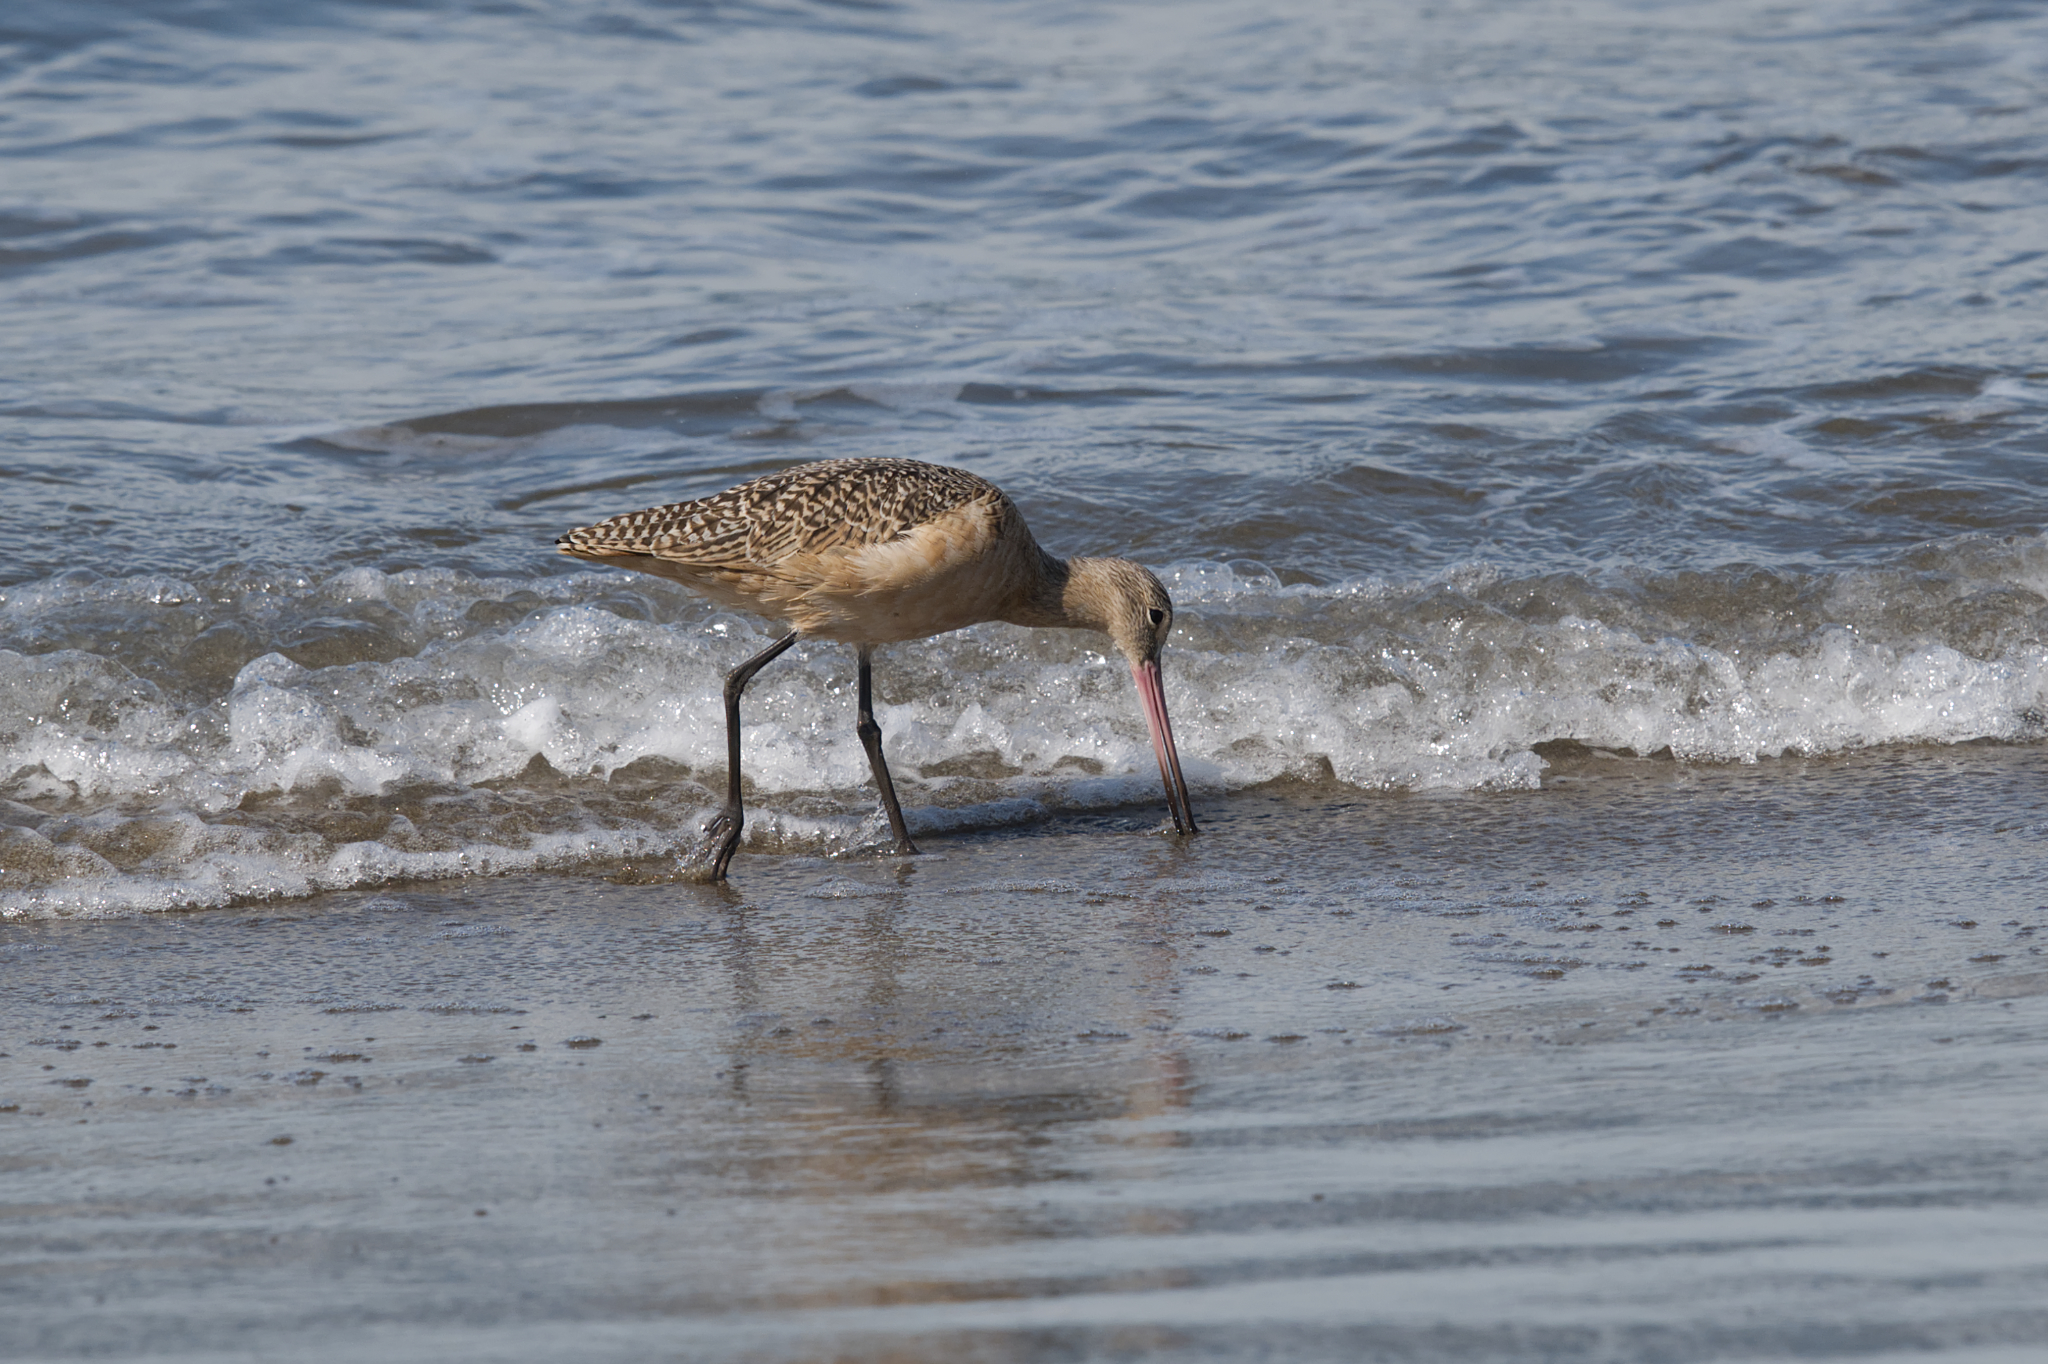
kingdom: Animalia
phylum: Chordata
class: Aves
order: Charadriiformes
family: Scolopacidae
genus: Limosa
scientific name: Limosa fedoa
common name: Marbled godwit
